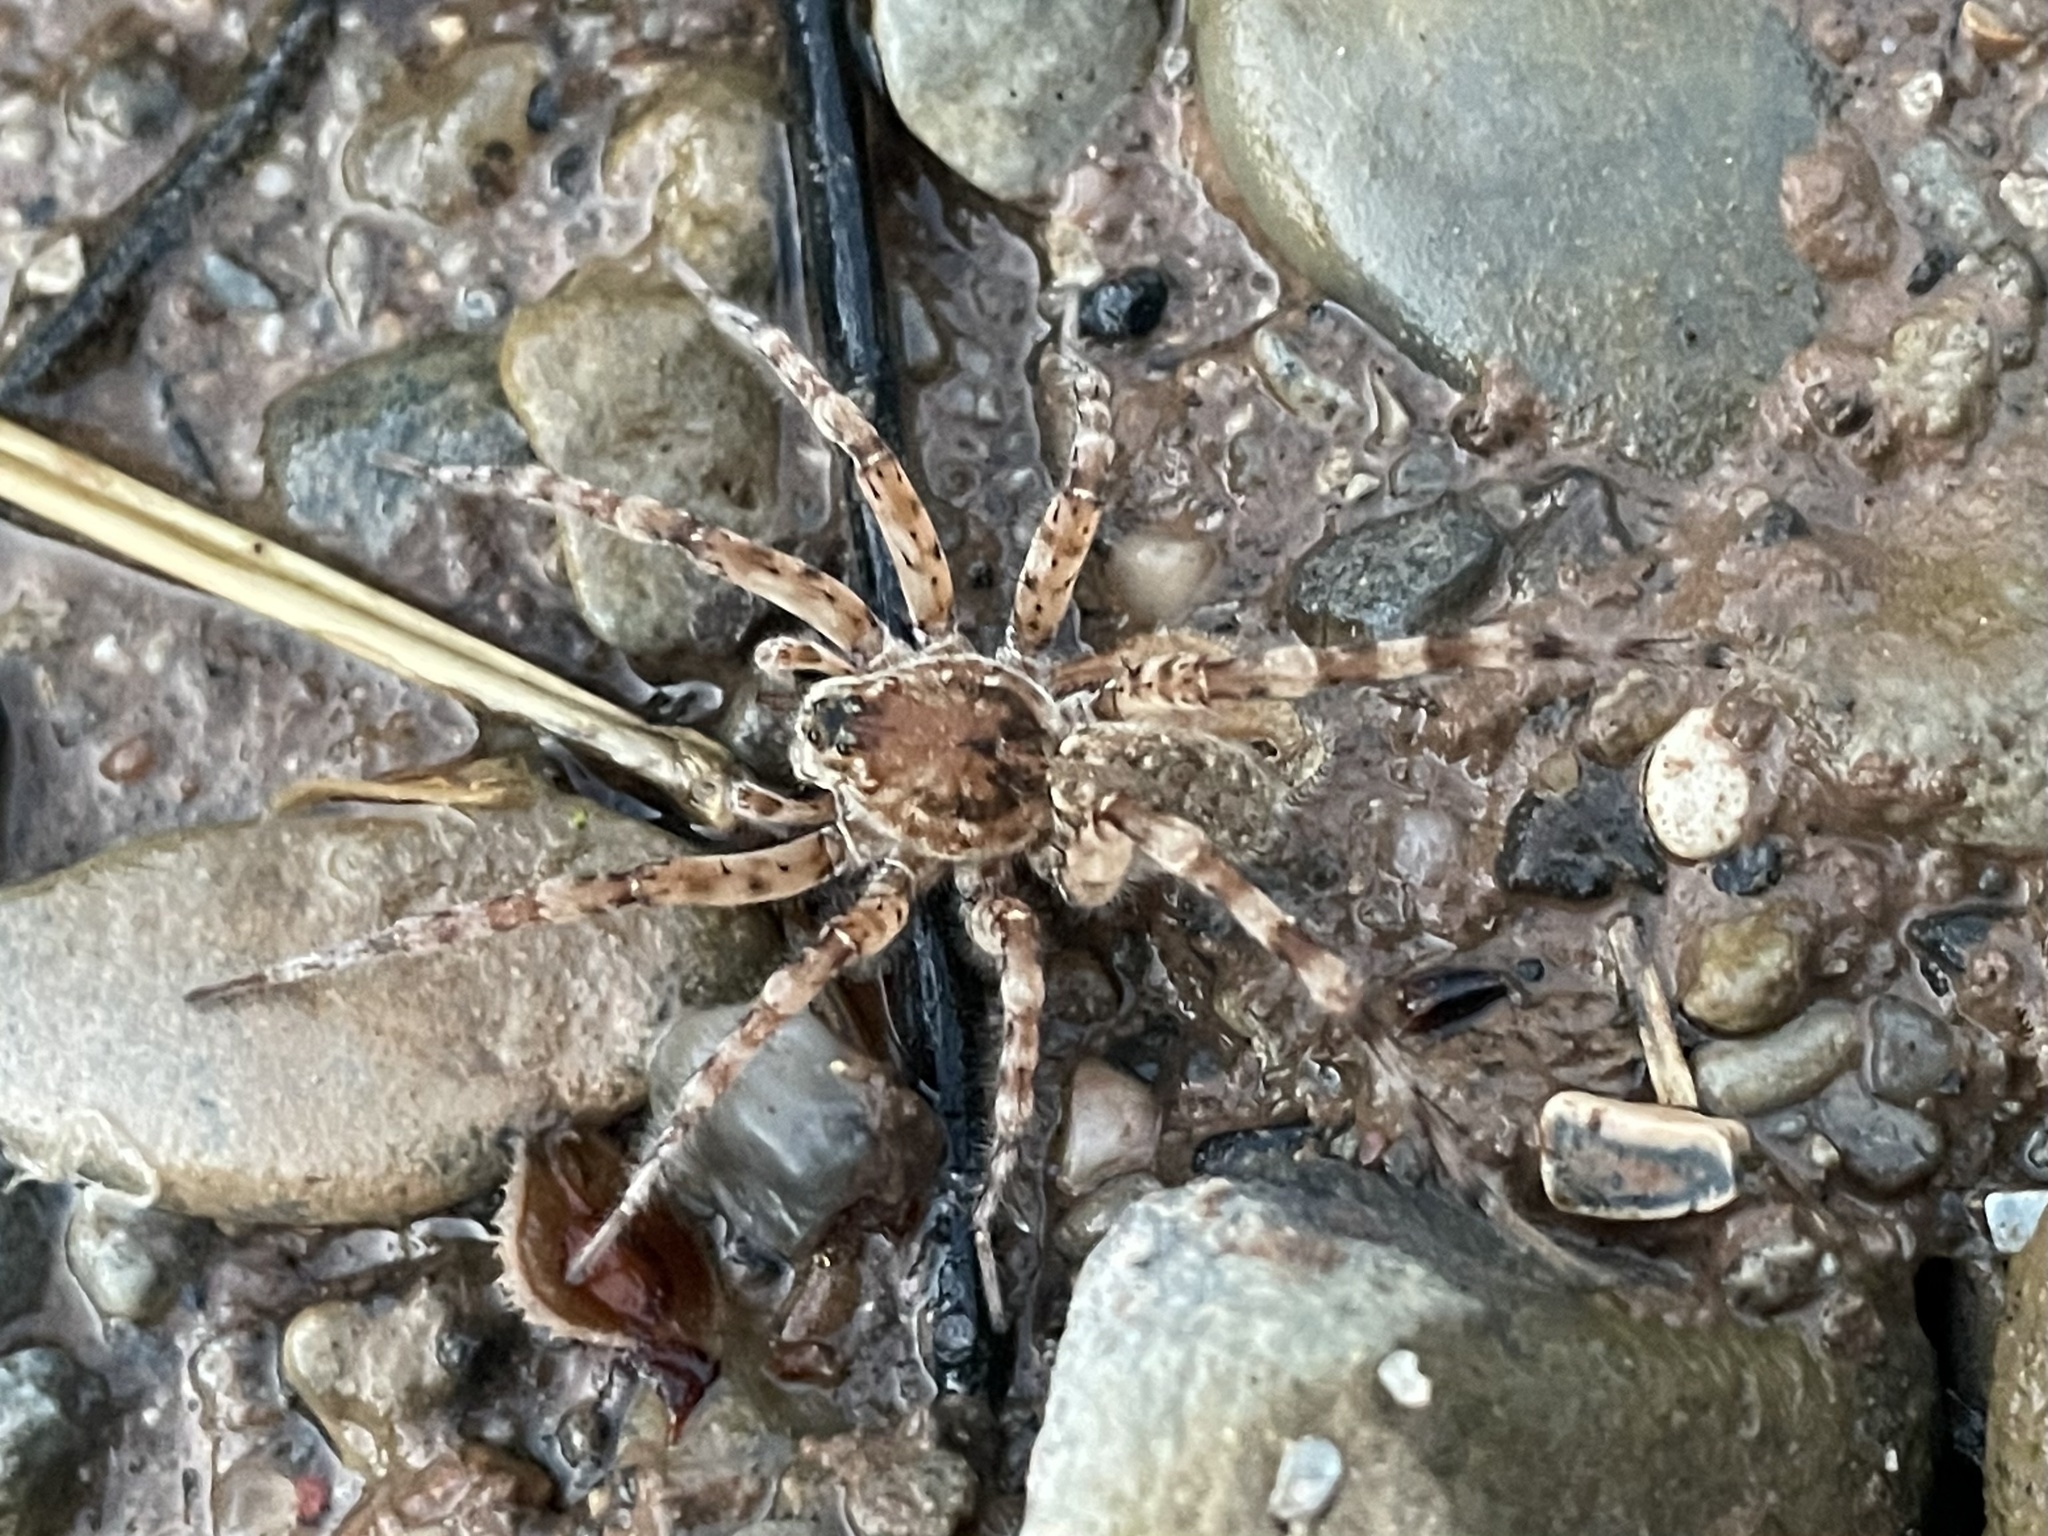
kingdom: Animalia
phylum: Arthropoda
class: Arachnida
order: Araneae
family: Lycosidae
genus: Arctosa
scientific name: Arctosa littoralis
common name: Wolf spiders
